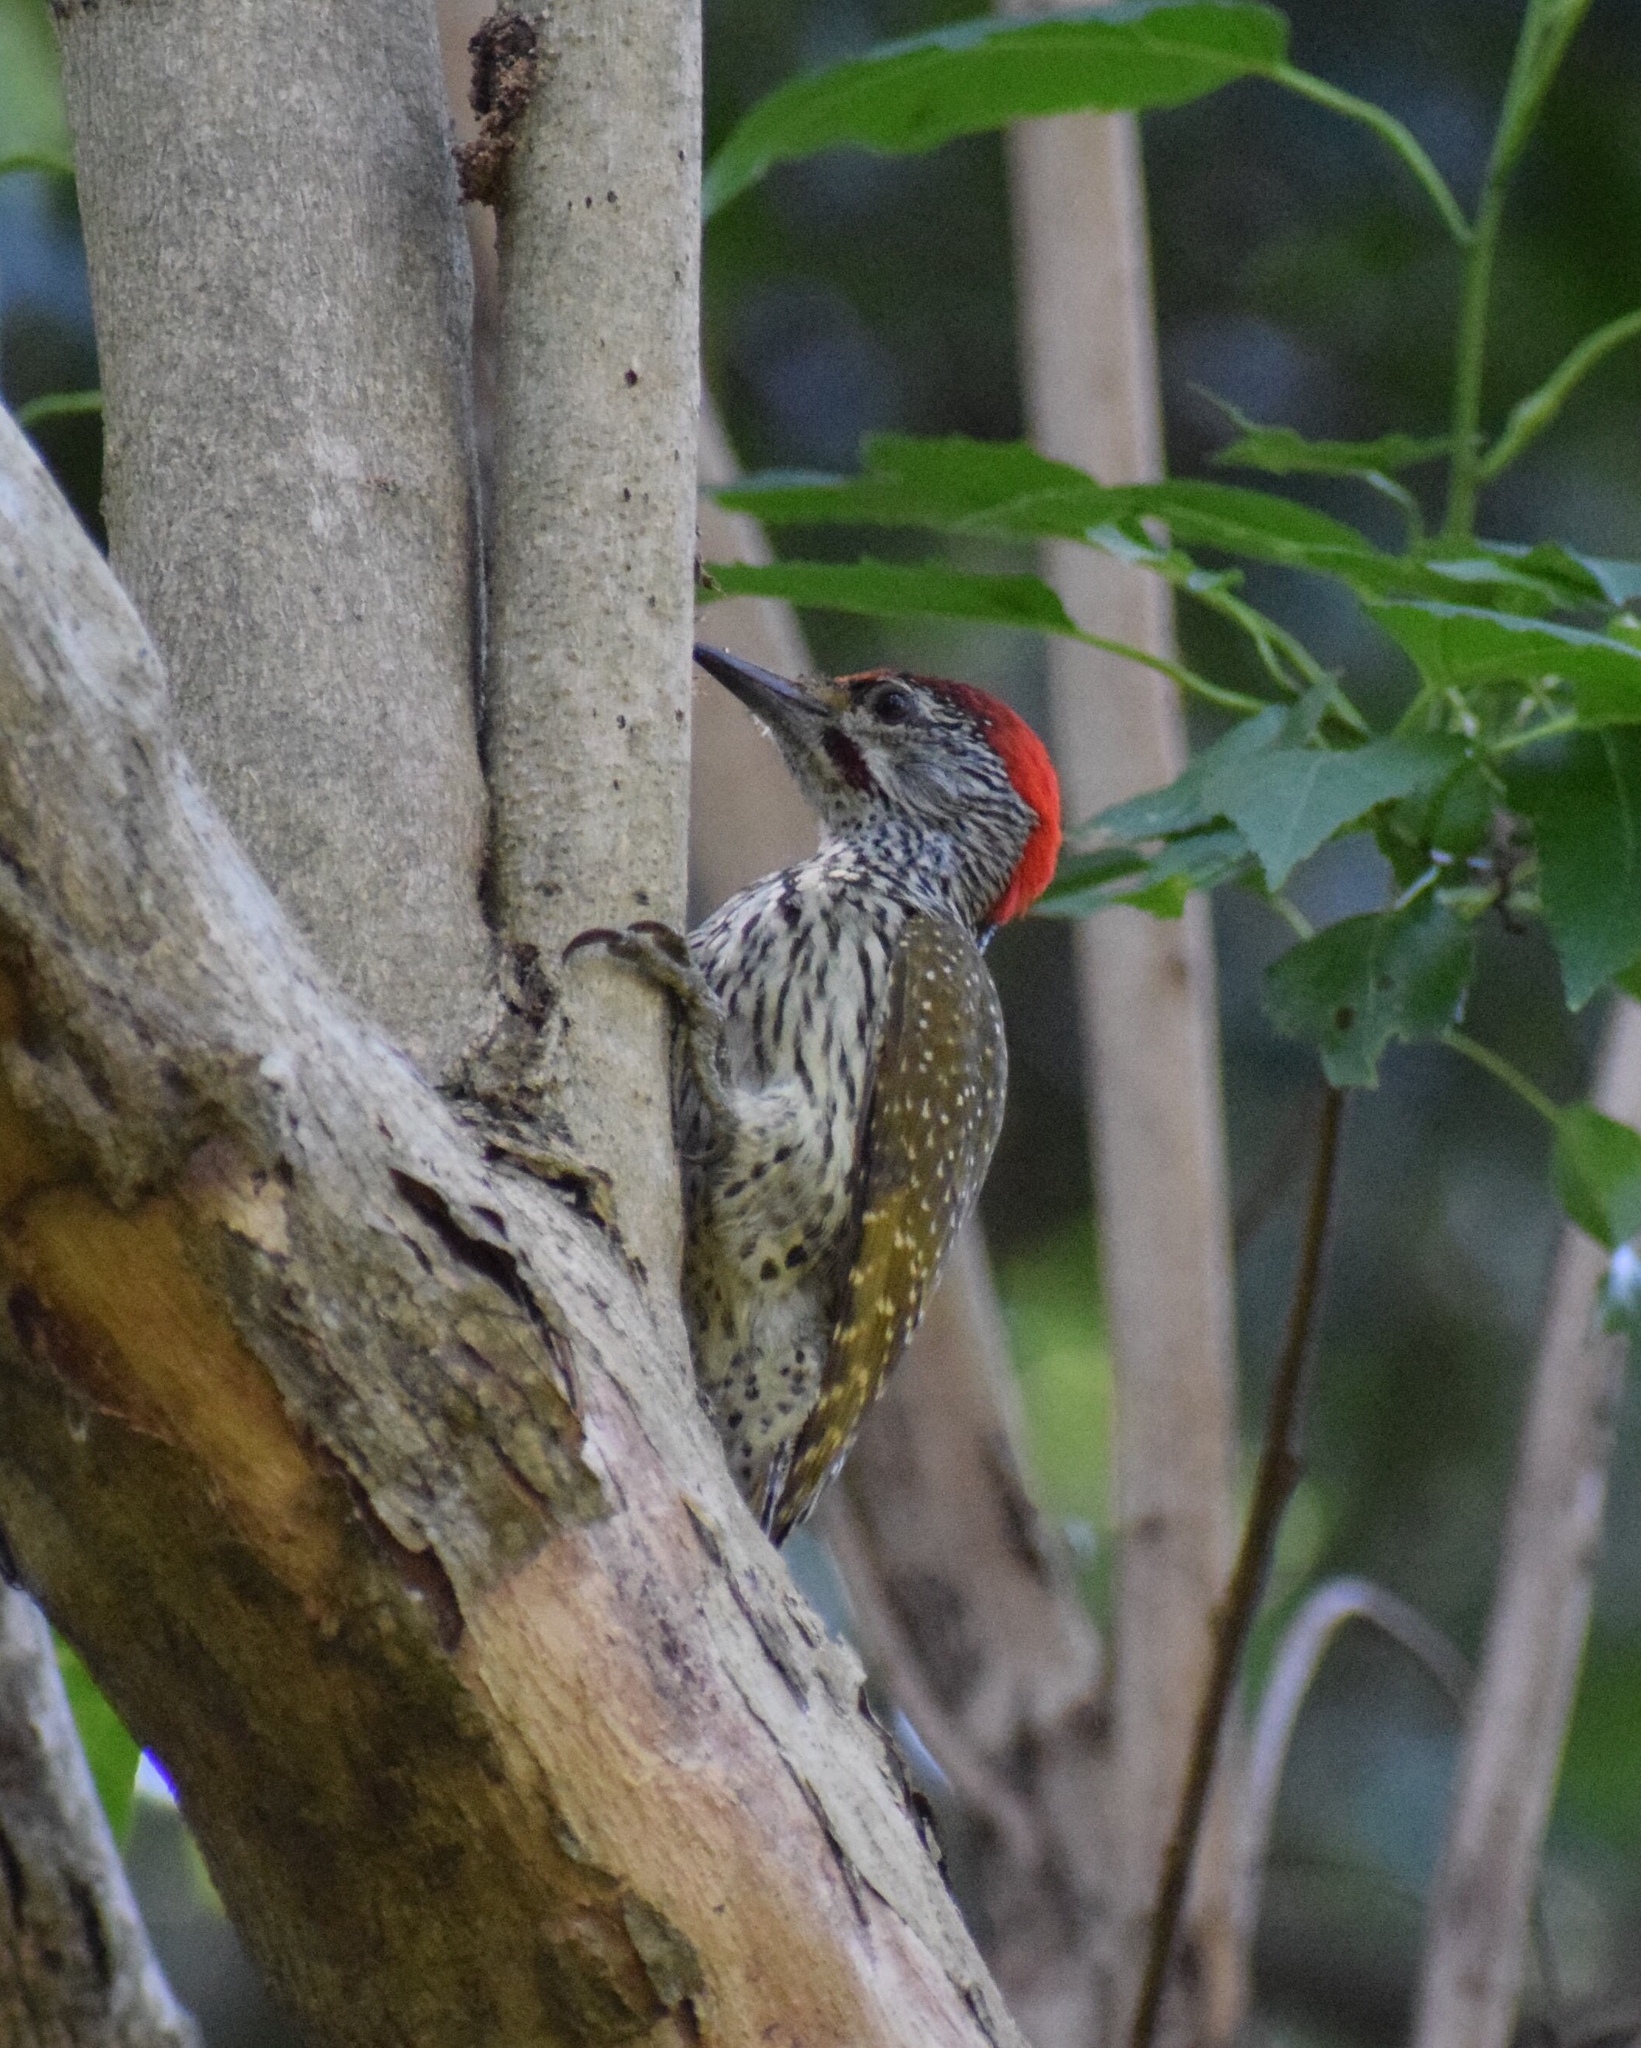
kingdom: Animalia
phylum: Chordata
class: Aves
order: Piciformes
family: Picidae
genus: Campethera
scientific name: Campethera abingoni
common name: Golden-tailed woodpecker
